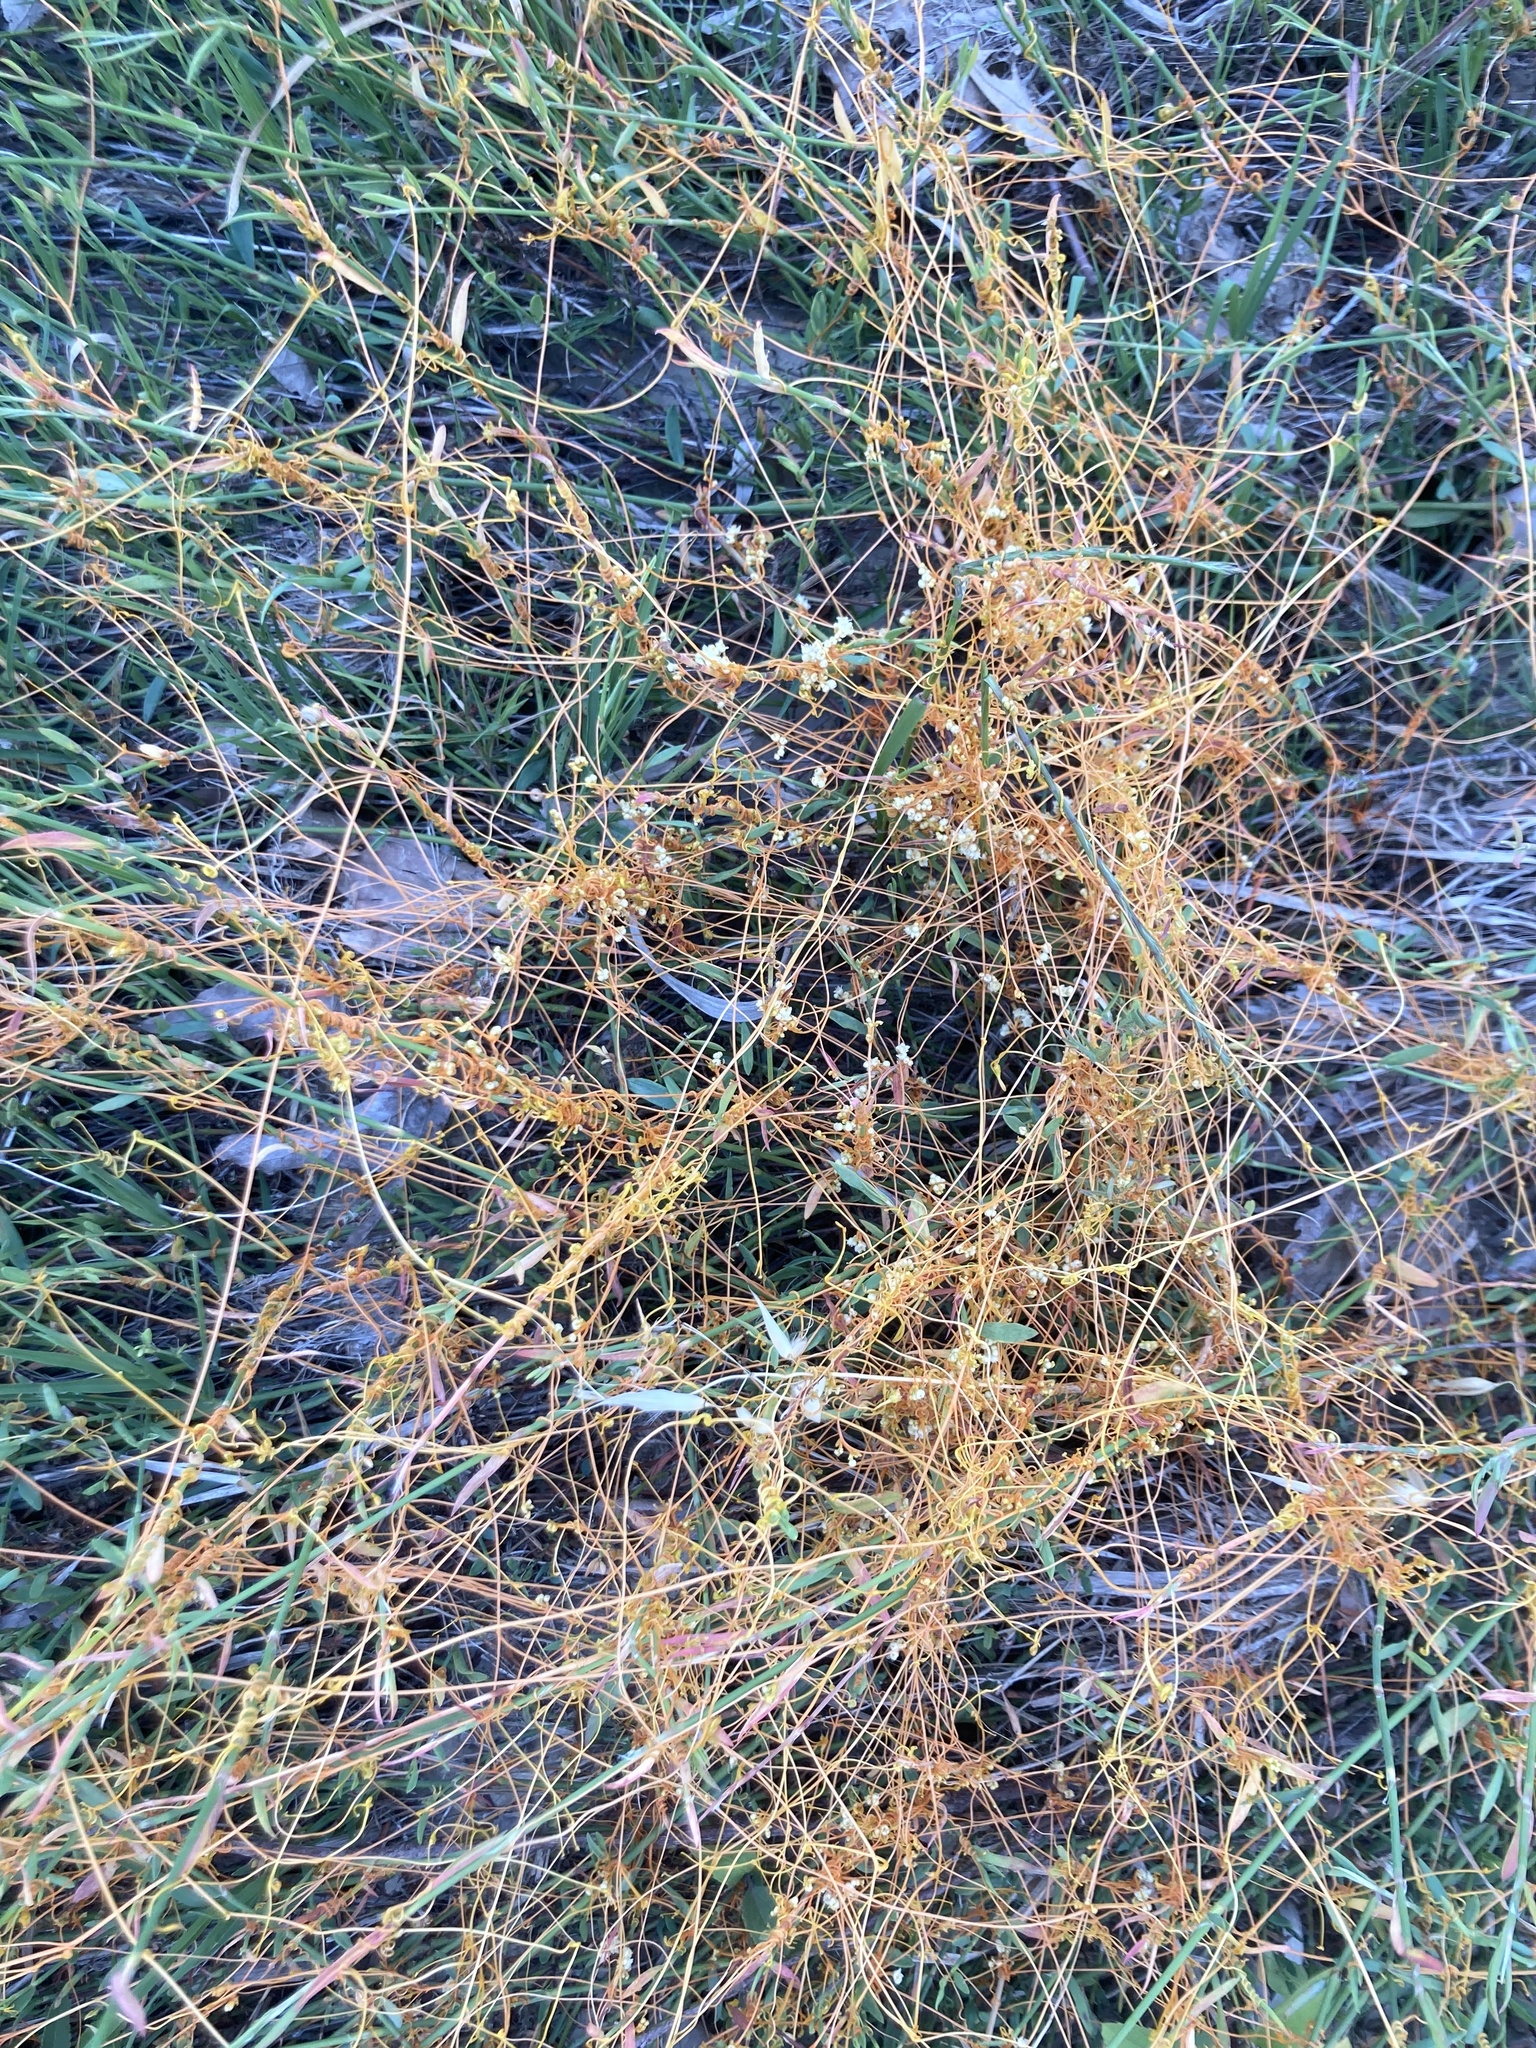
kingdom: Plantae
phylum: Tracheophyta
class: Magnoliopsida
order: Solanales
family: Convolvulaceae
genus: Cuscuta
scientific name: Cuscuta
